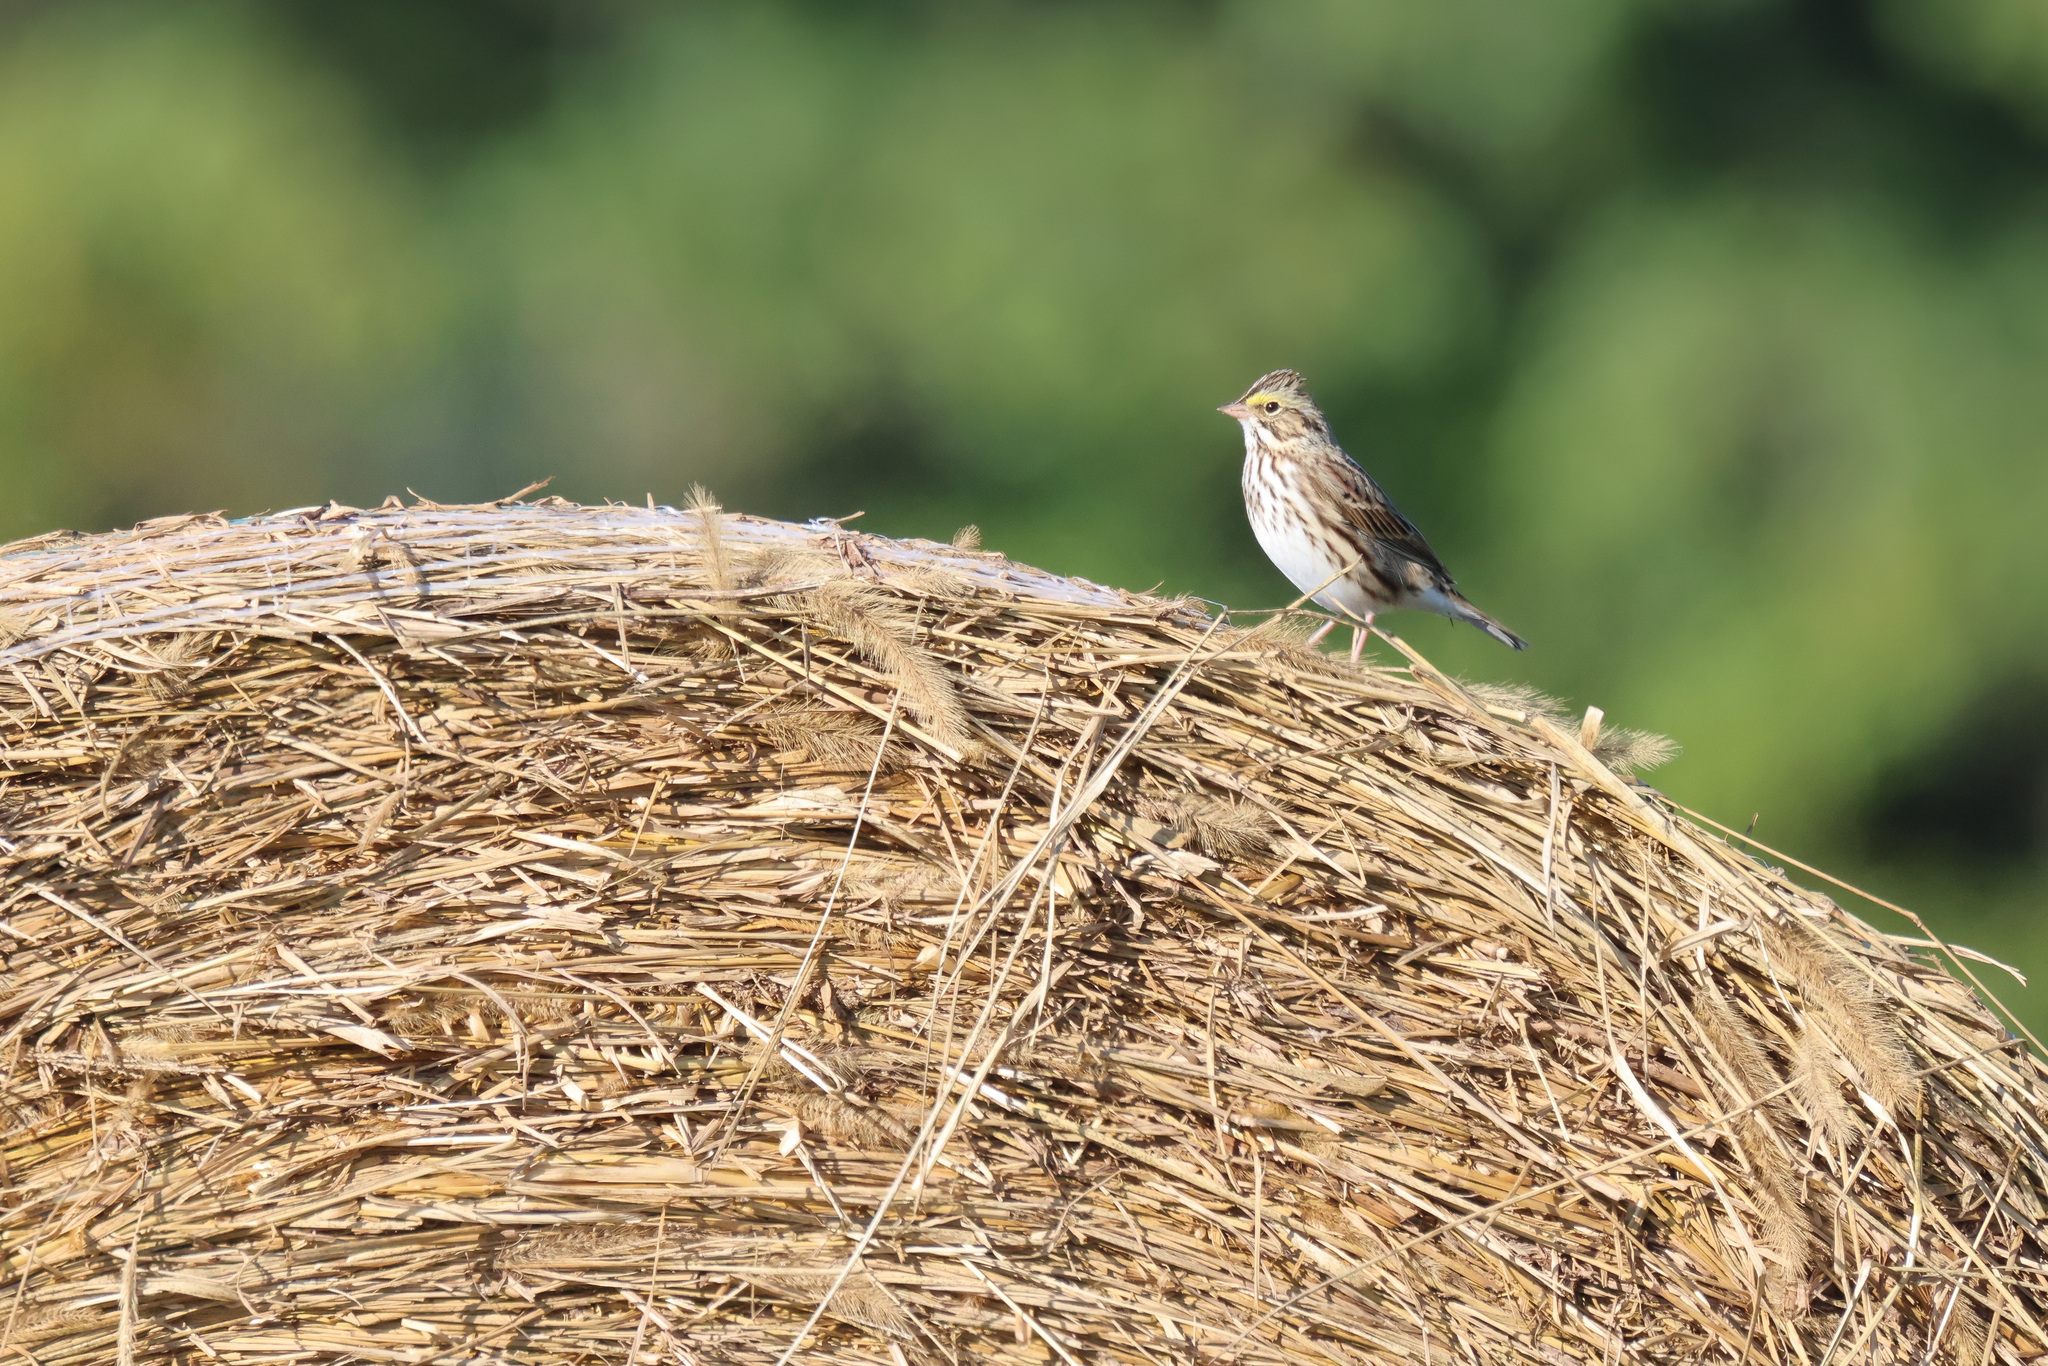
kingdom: Animalia
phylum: Chordata
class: Aves
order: Passeriformes
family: Passerellidae
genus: Passerculus
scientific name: Passerculus sandwichensis
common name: Savannah sparrow
